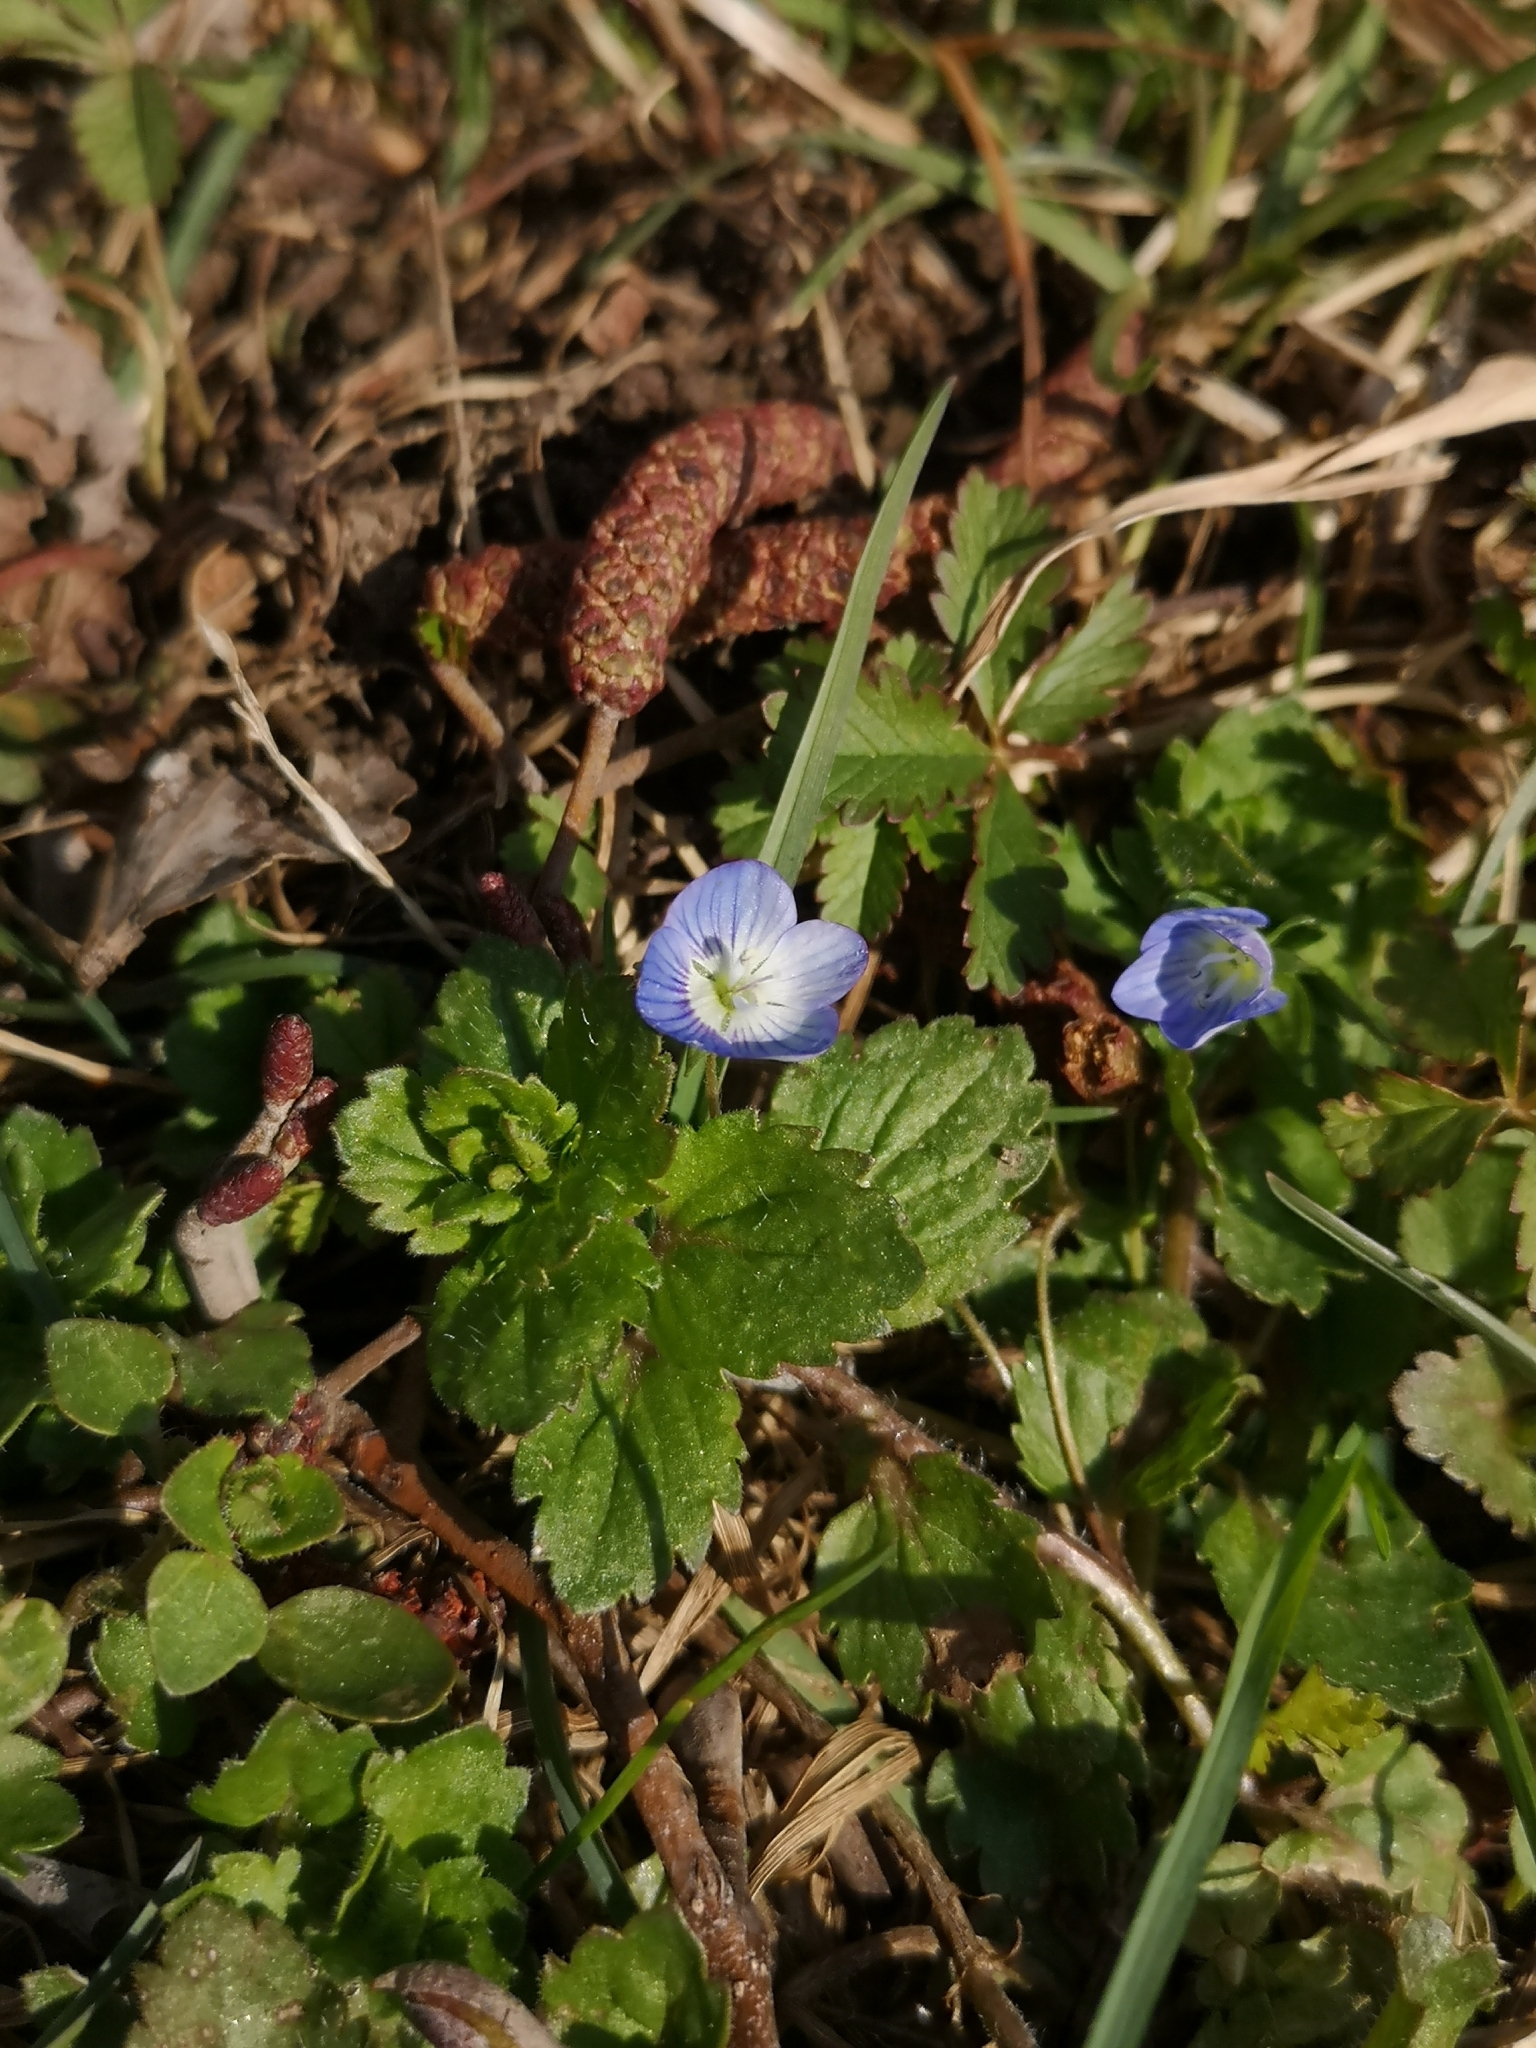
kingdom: Plantae
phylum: Tracheophyta
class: Magnoliopsida
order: Lamiales
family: Plantaginaceae
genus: Veronica
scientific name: Veronica persica
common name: Common field-speedwell
